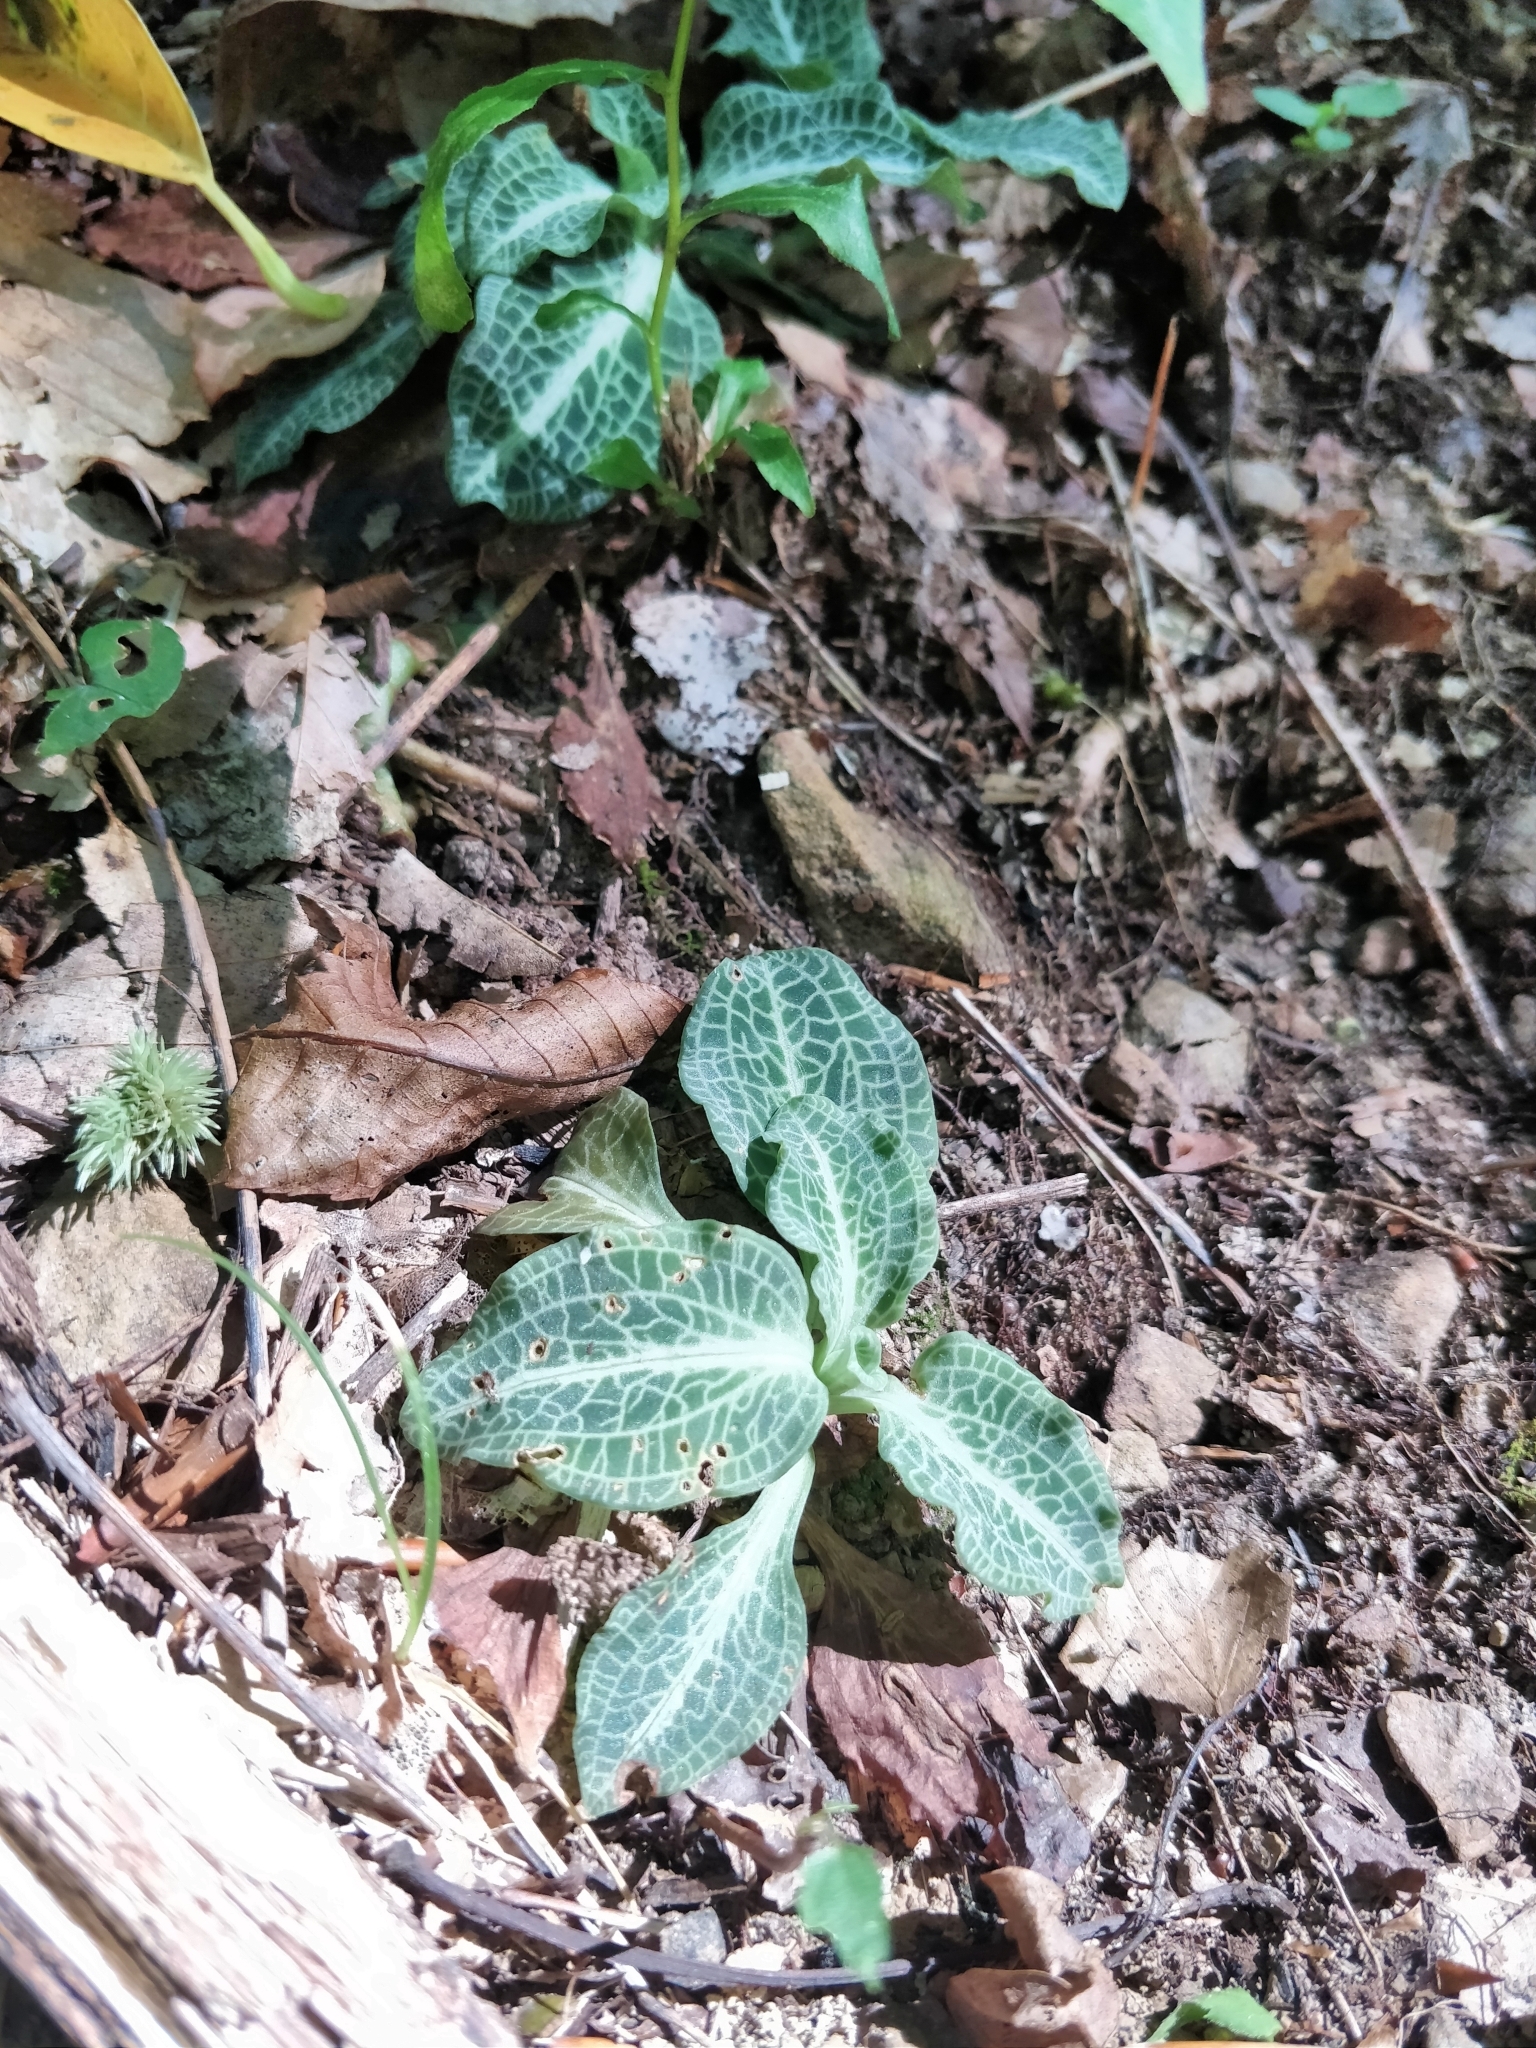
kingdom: Plantae
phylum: Tracheophyta
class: Liliopsida
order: Asparagales
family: Orchidaceae
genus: Goodyera
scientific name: Goodyera pubescens
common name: Downy rattlesnake-plantain
